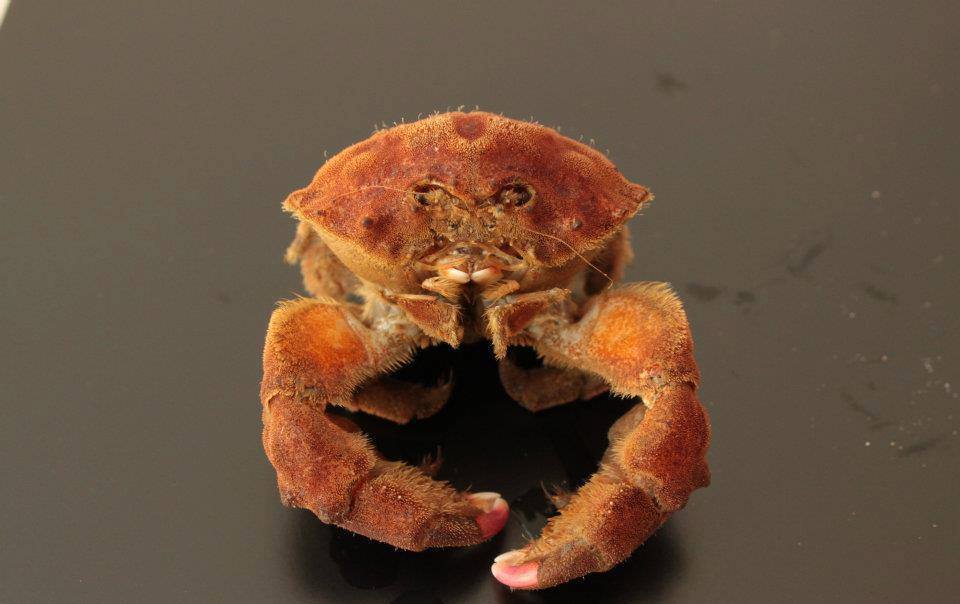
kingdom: Animalia
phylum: Arthropoda
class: Malacostraca
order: Decapoda
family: Dromiidae
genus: Dromia
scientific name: Dromia personata
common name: Sleepy crab
